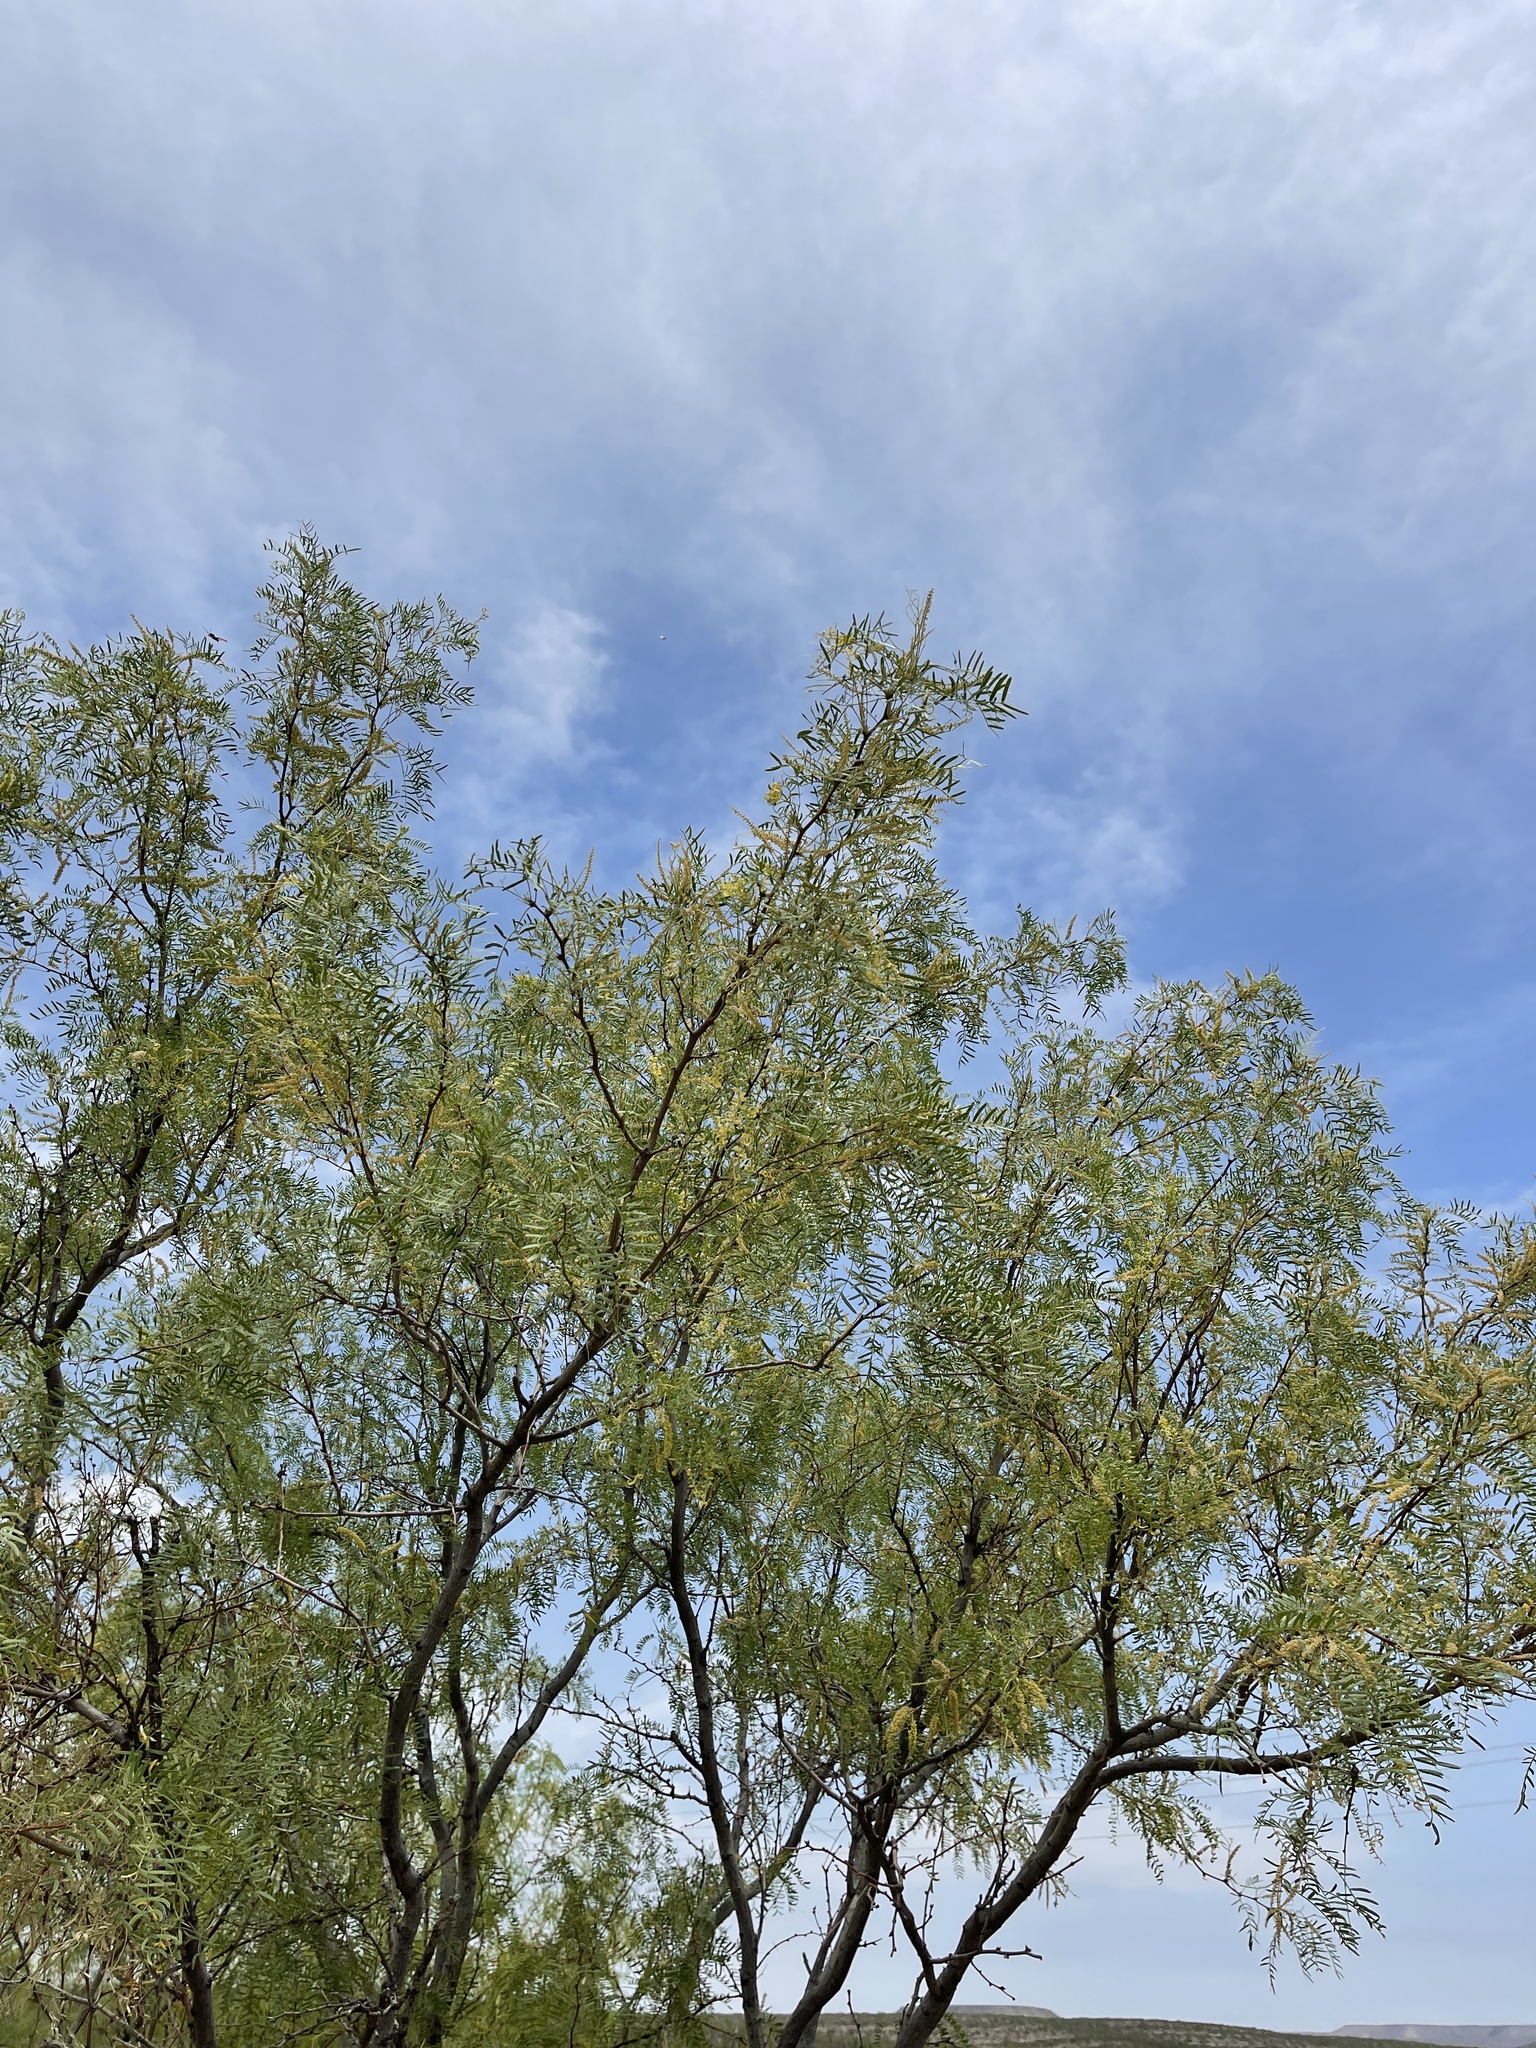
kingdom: Plantae
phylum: Tracheophyta
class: Magnoliopsida
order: Fabales
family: Fabaceae
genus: Prosopis
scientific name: Prosopis glandulosa
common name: Honey mesquite
